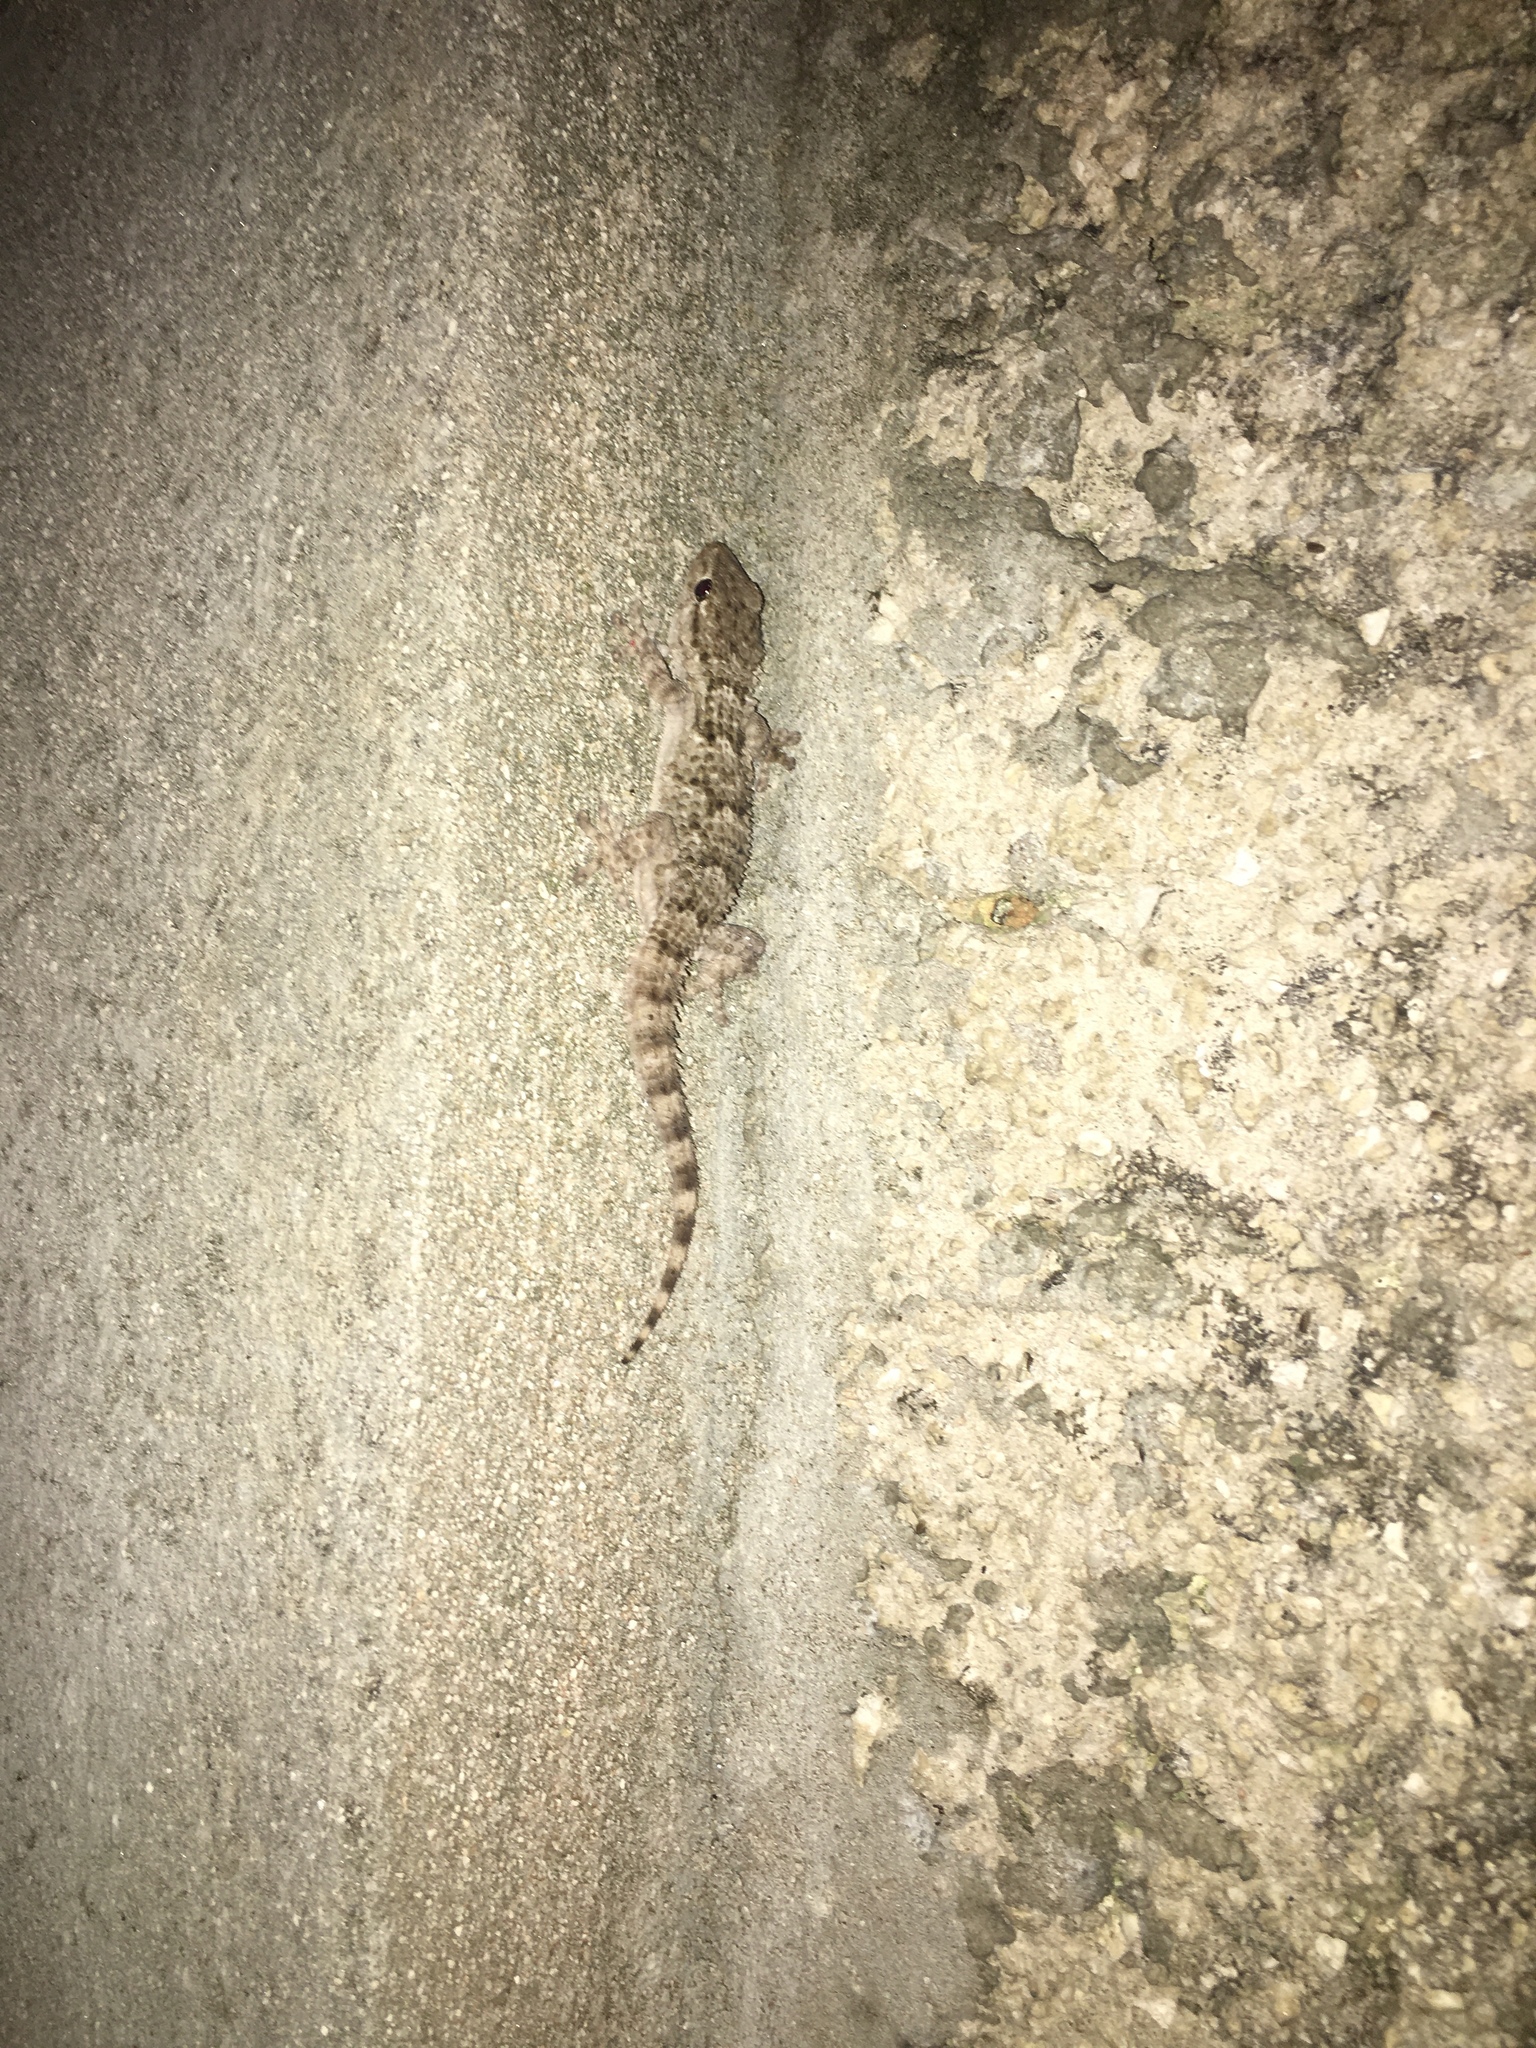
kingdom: Animalia
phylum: Chordata
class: Squamata
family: Phyllodactylidae
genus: Tarentola
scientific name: Tarentola mauritanica
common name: Moorish gecko
